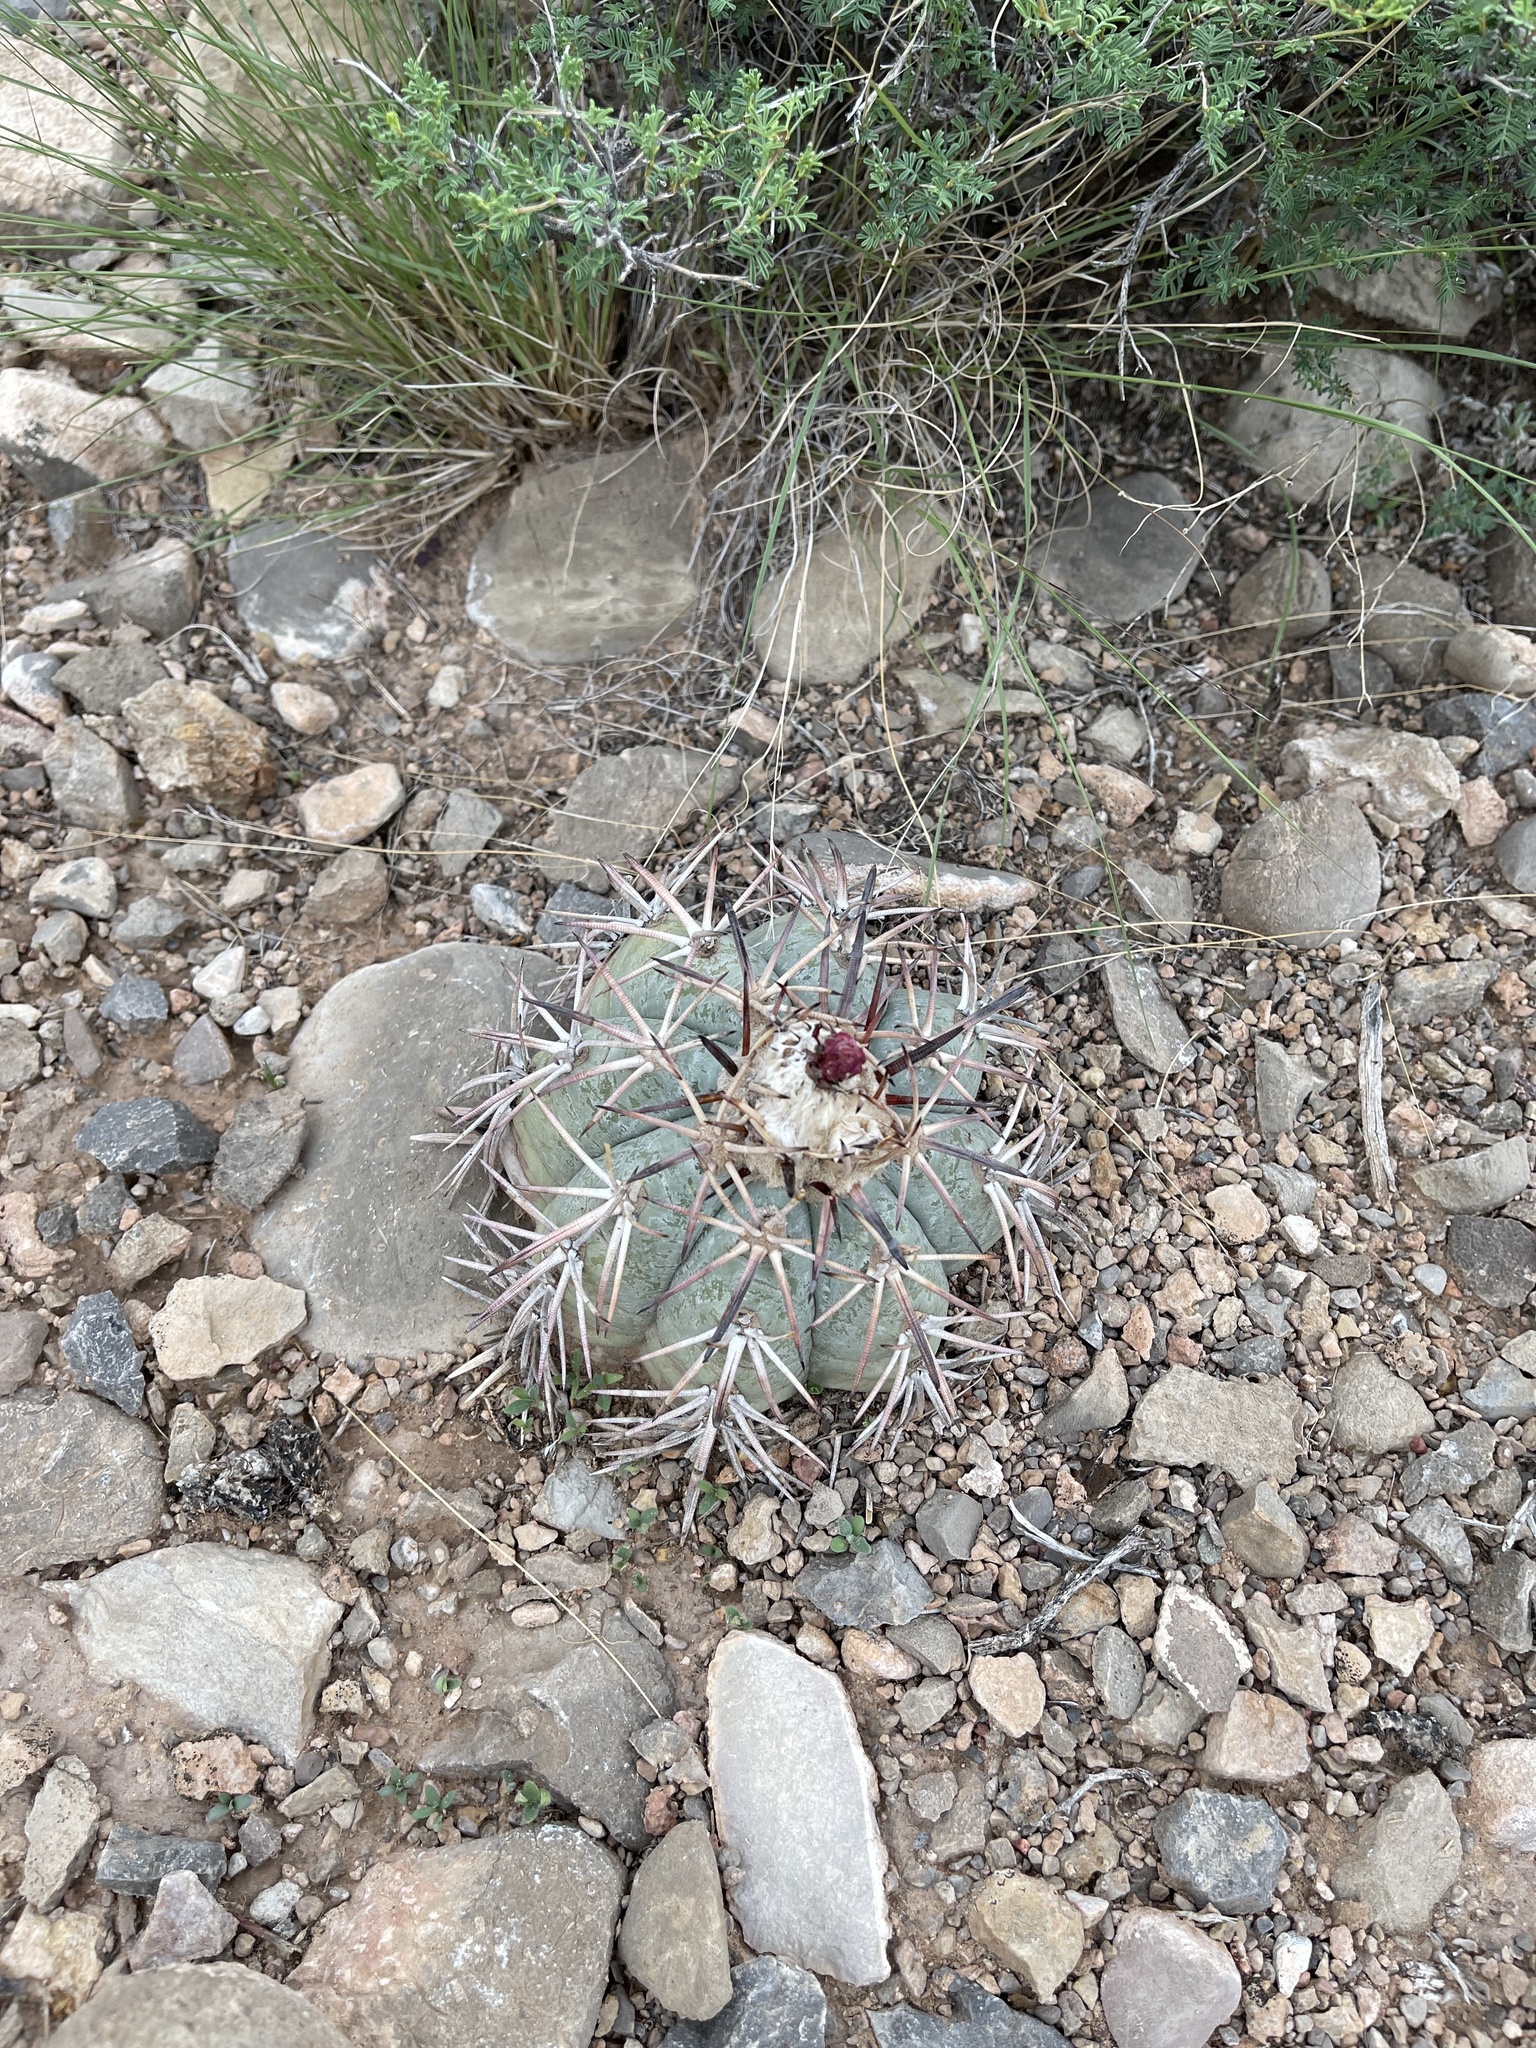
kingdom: Plantae
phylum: Tracheophyta
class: Magnoliopsida
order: Caryophyllales
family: Cactaceae
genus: Echinocactus
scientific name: Echinocactus horizonthalonius
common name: Devilshead
